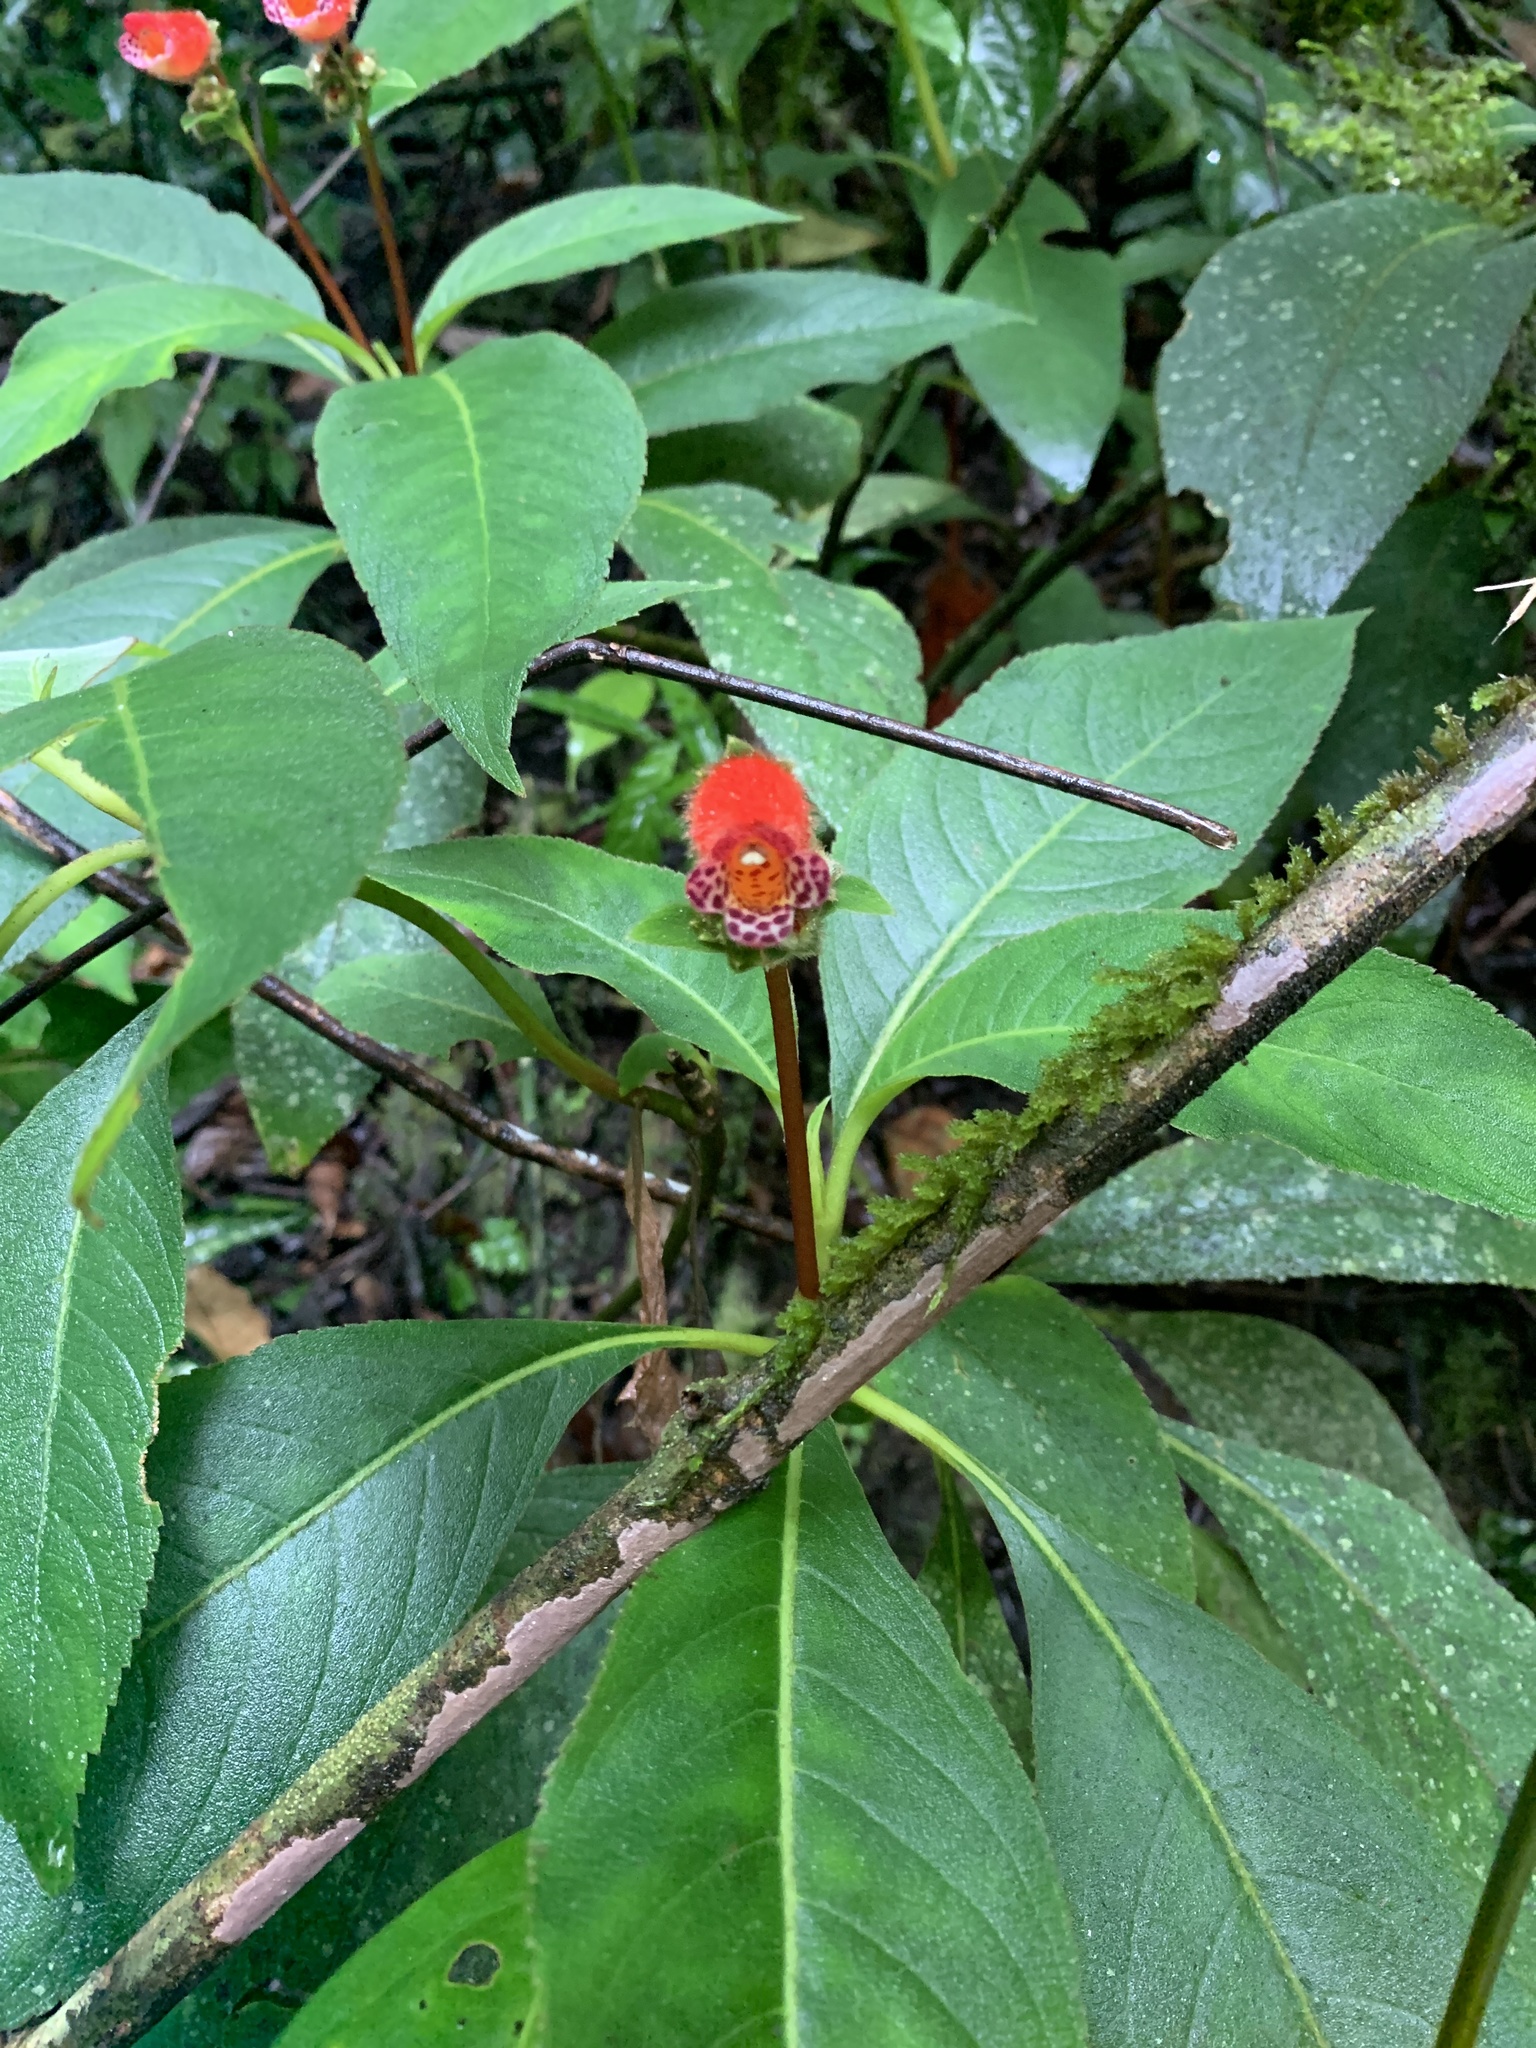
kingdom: Plantae
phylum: Tracheophyta
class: Magnoliopsida
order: Lamiales
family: Gesneriaceae
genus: Pearcea
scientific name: Pearcea reticulata
